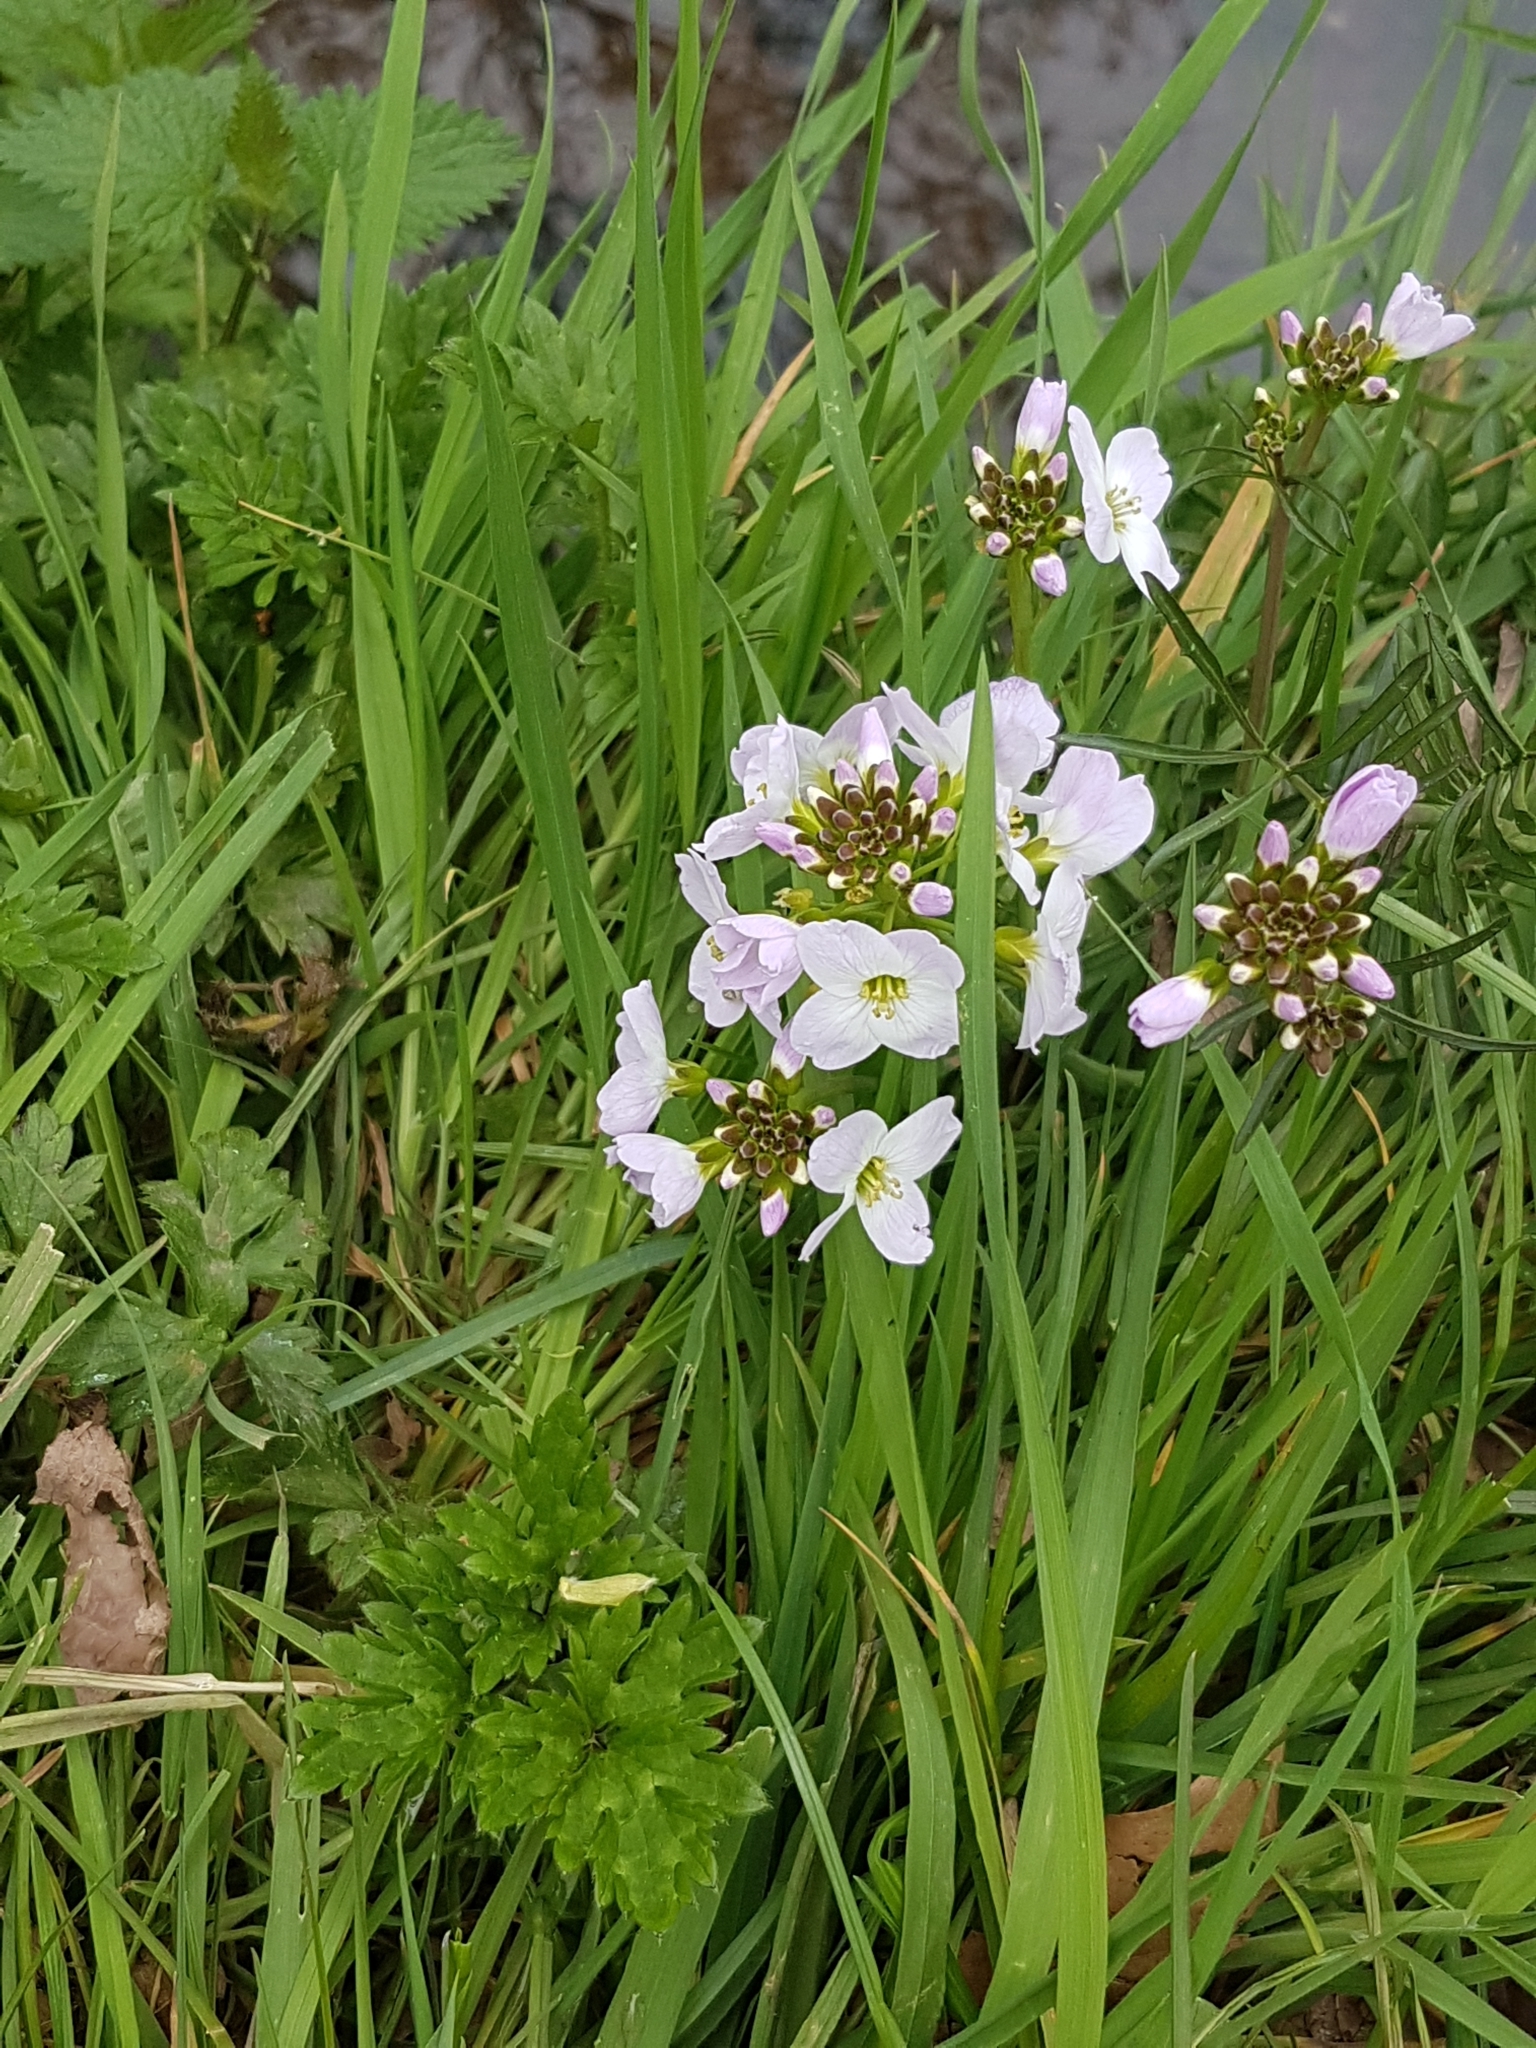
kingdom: Plantae
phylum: Tracheophyta
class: Magnoliopsida
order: Brassicales
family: Brassicaceae
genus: Cardamine
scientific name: Cardamine pratensis
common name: Cuckoo flower
